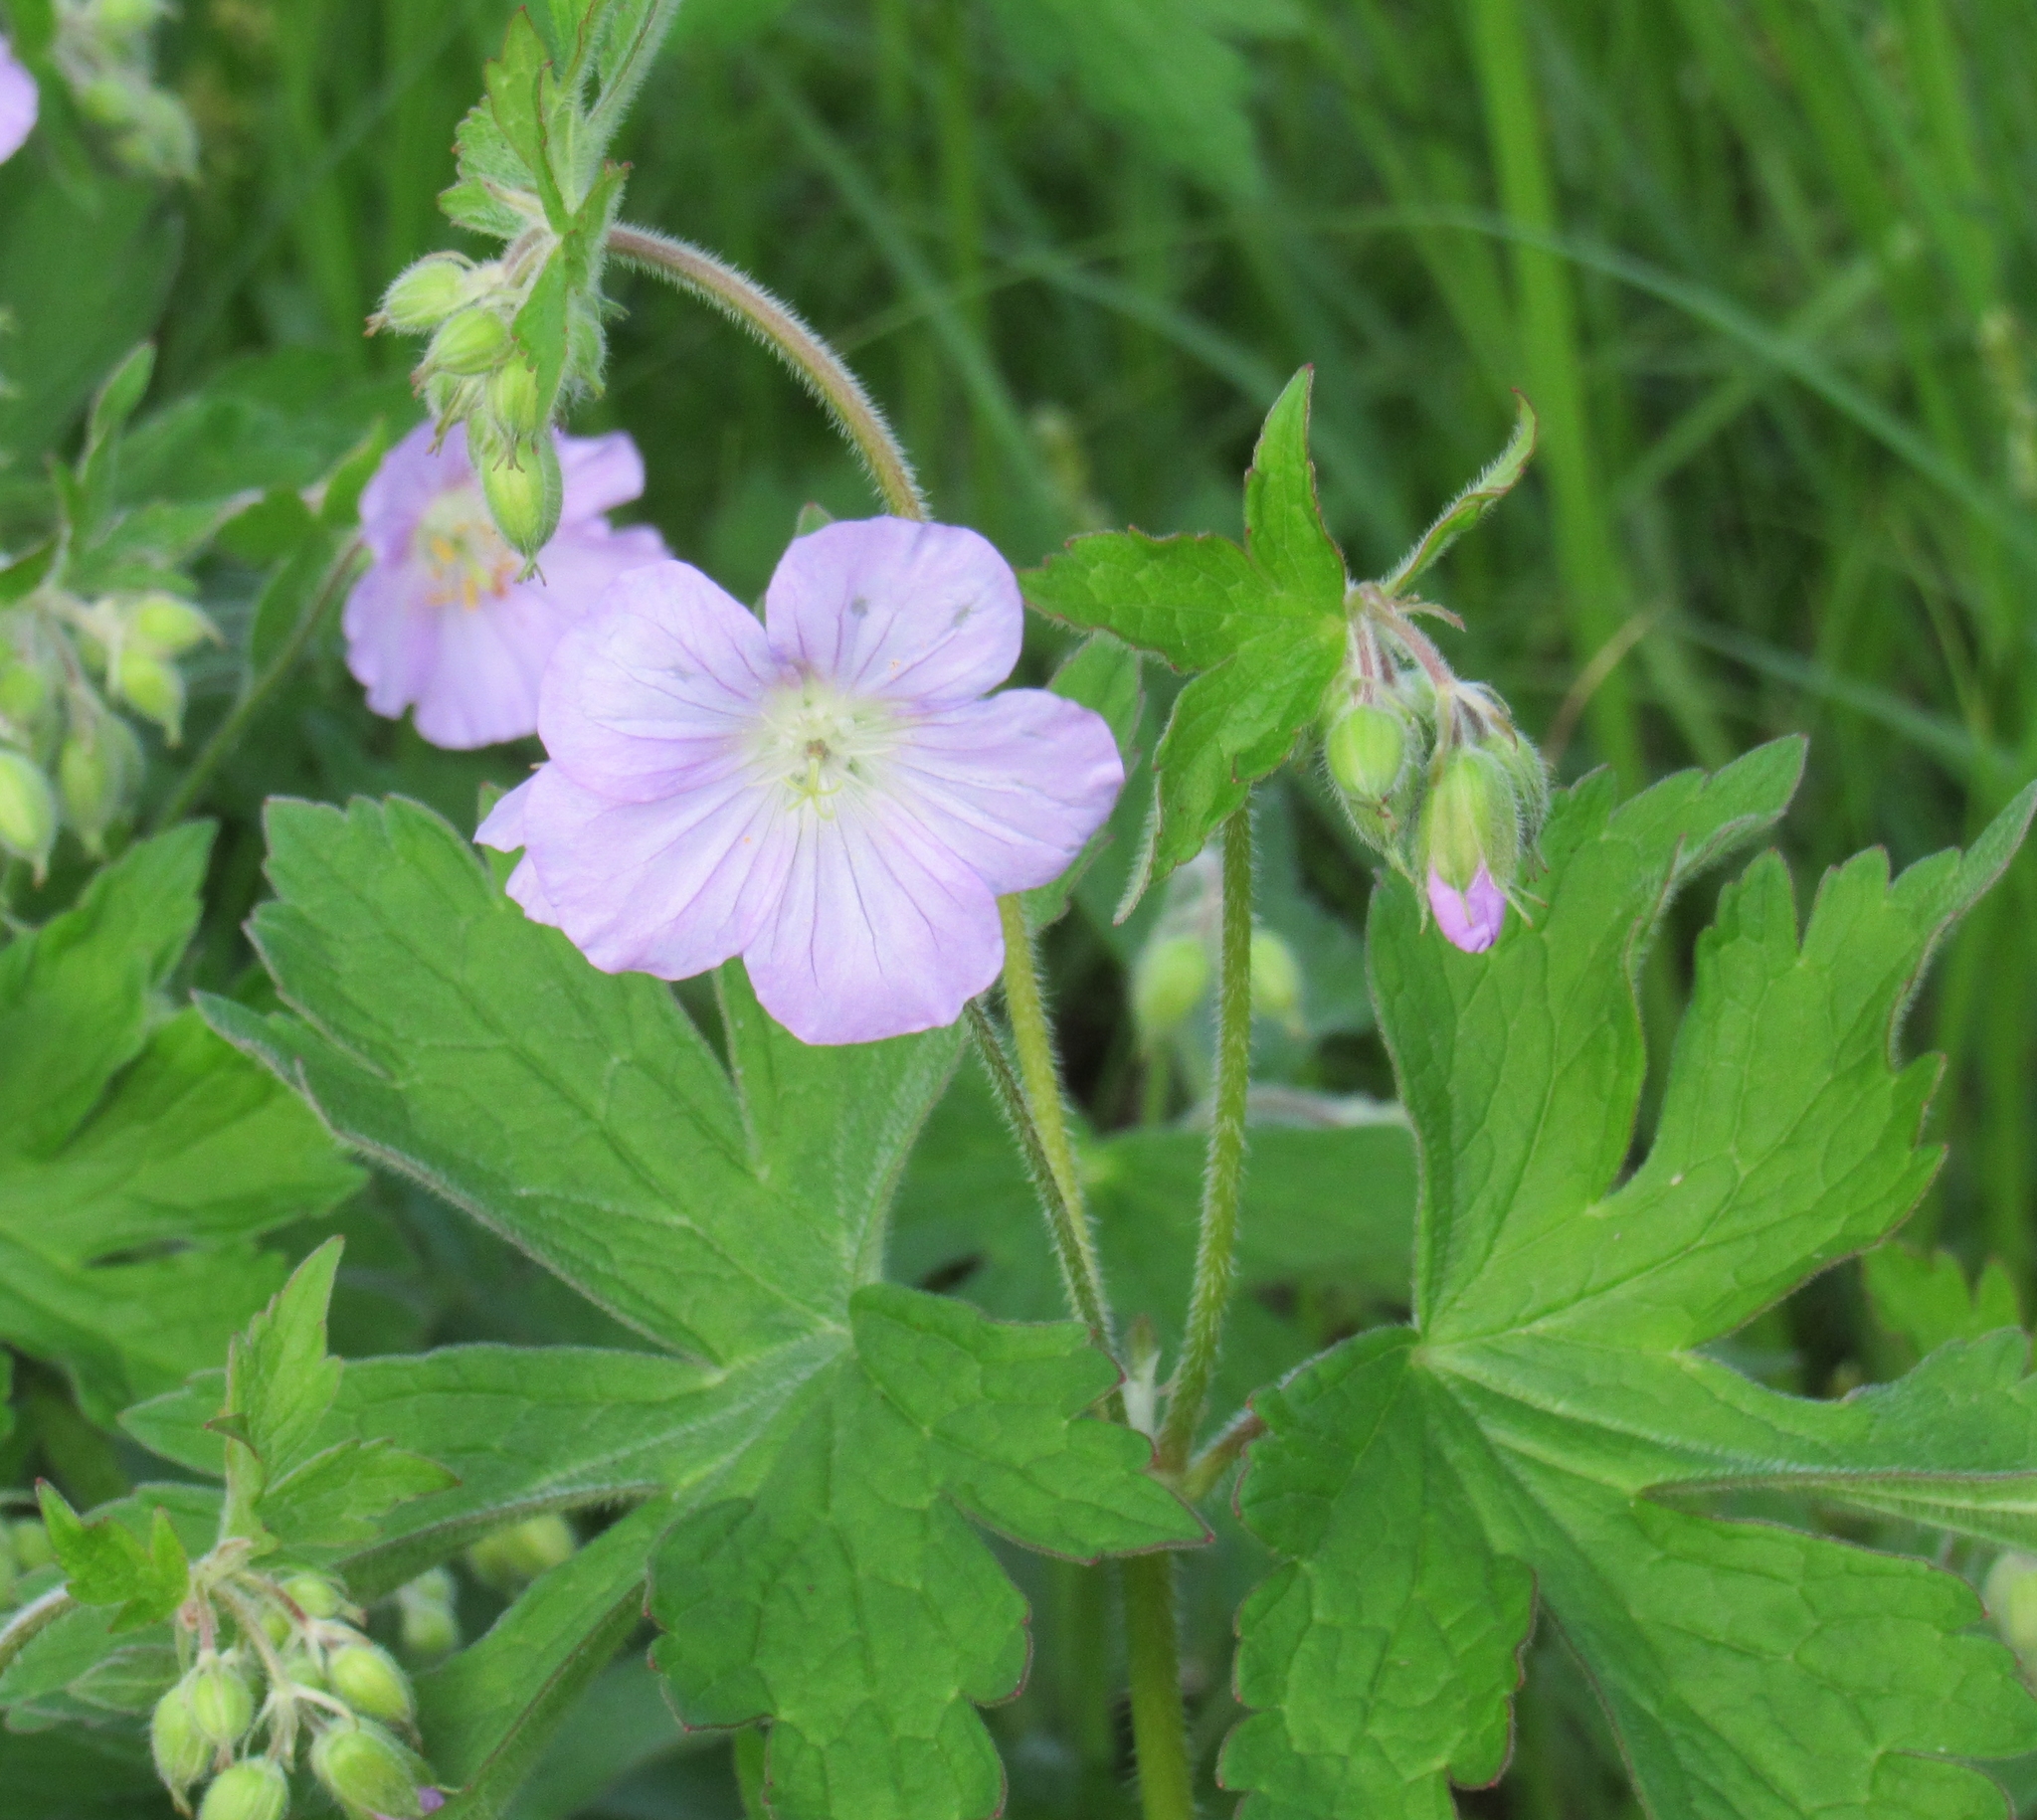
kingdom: Plantae
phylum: Tracheophyta
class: Magnoliopsida
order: Geraniales
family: Geraniaceae
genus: Geranium
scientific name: Geranium maculatum
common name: Spotted geranium
